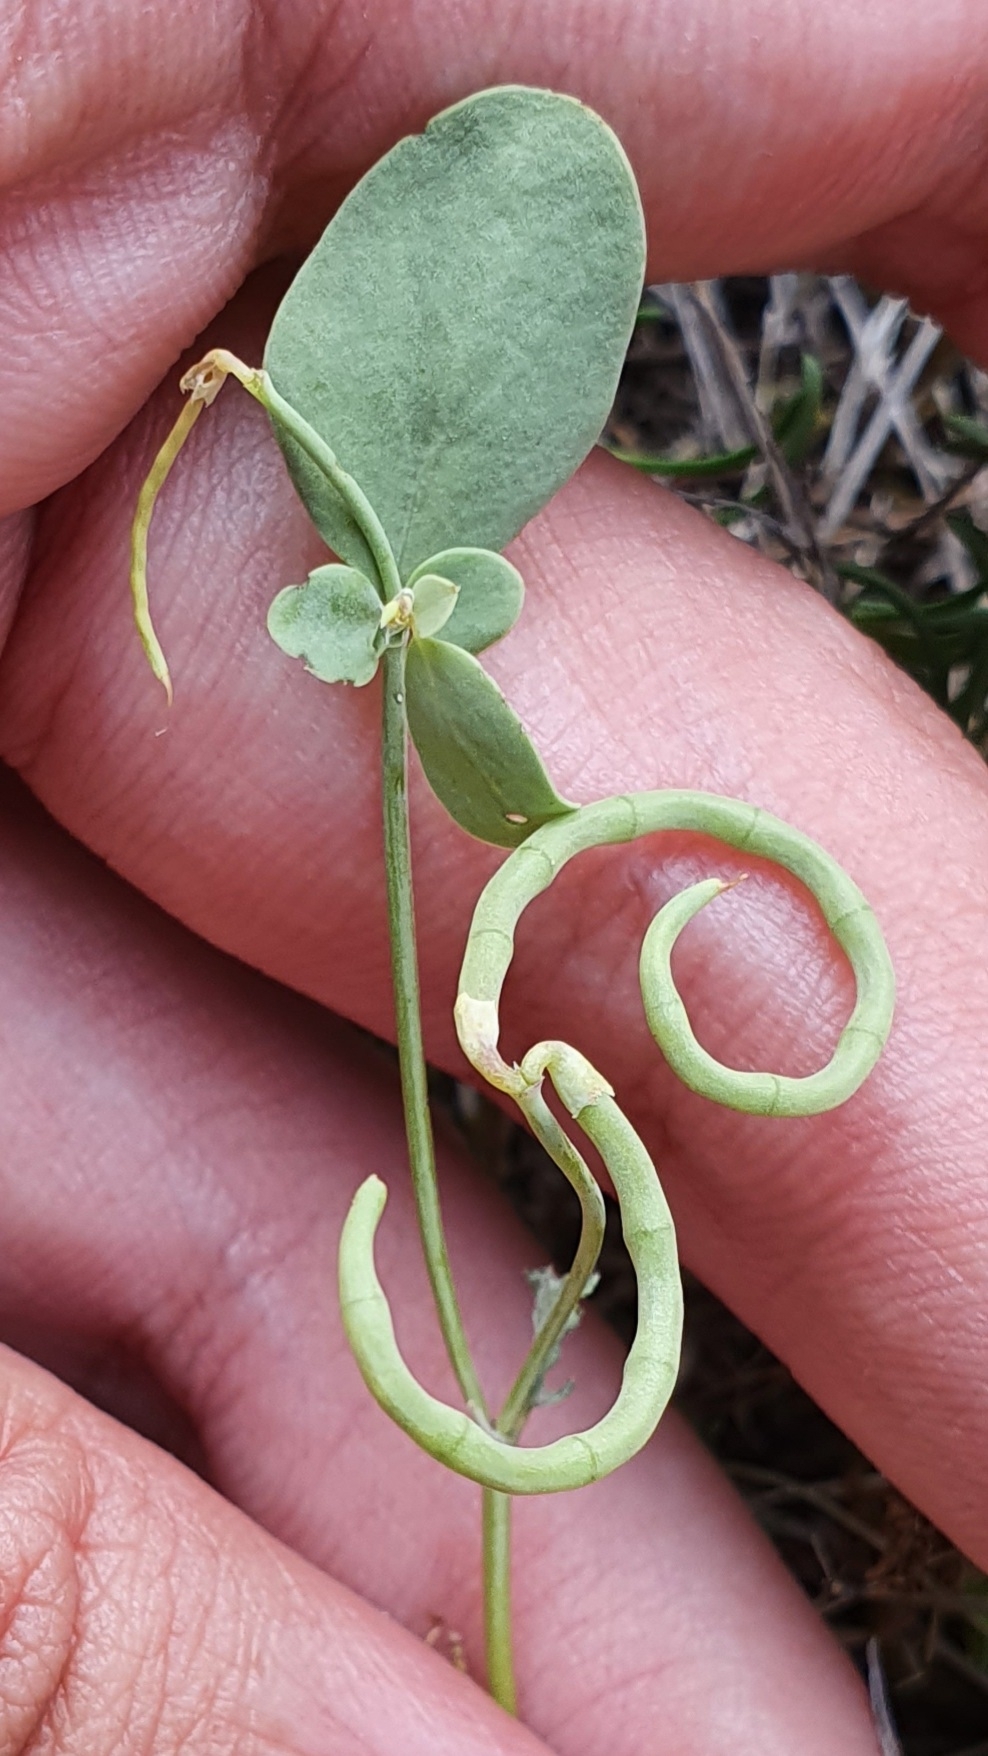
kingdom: Plantae
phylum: Tracheophyta
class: Magnoliopsida
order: Fabales
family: Fabaceae
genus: Coronilla
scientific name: Coronilla scorpioides
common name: Annual scorpion-vetch
